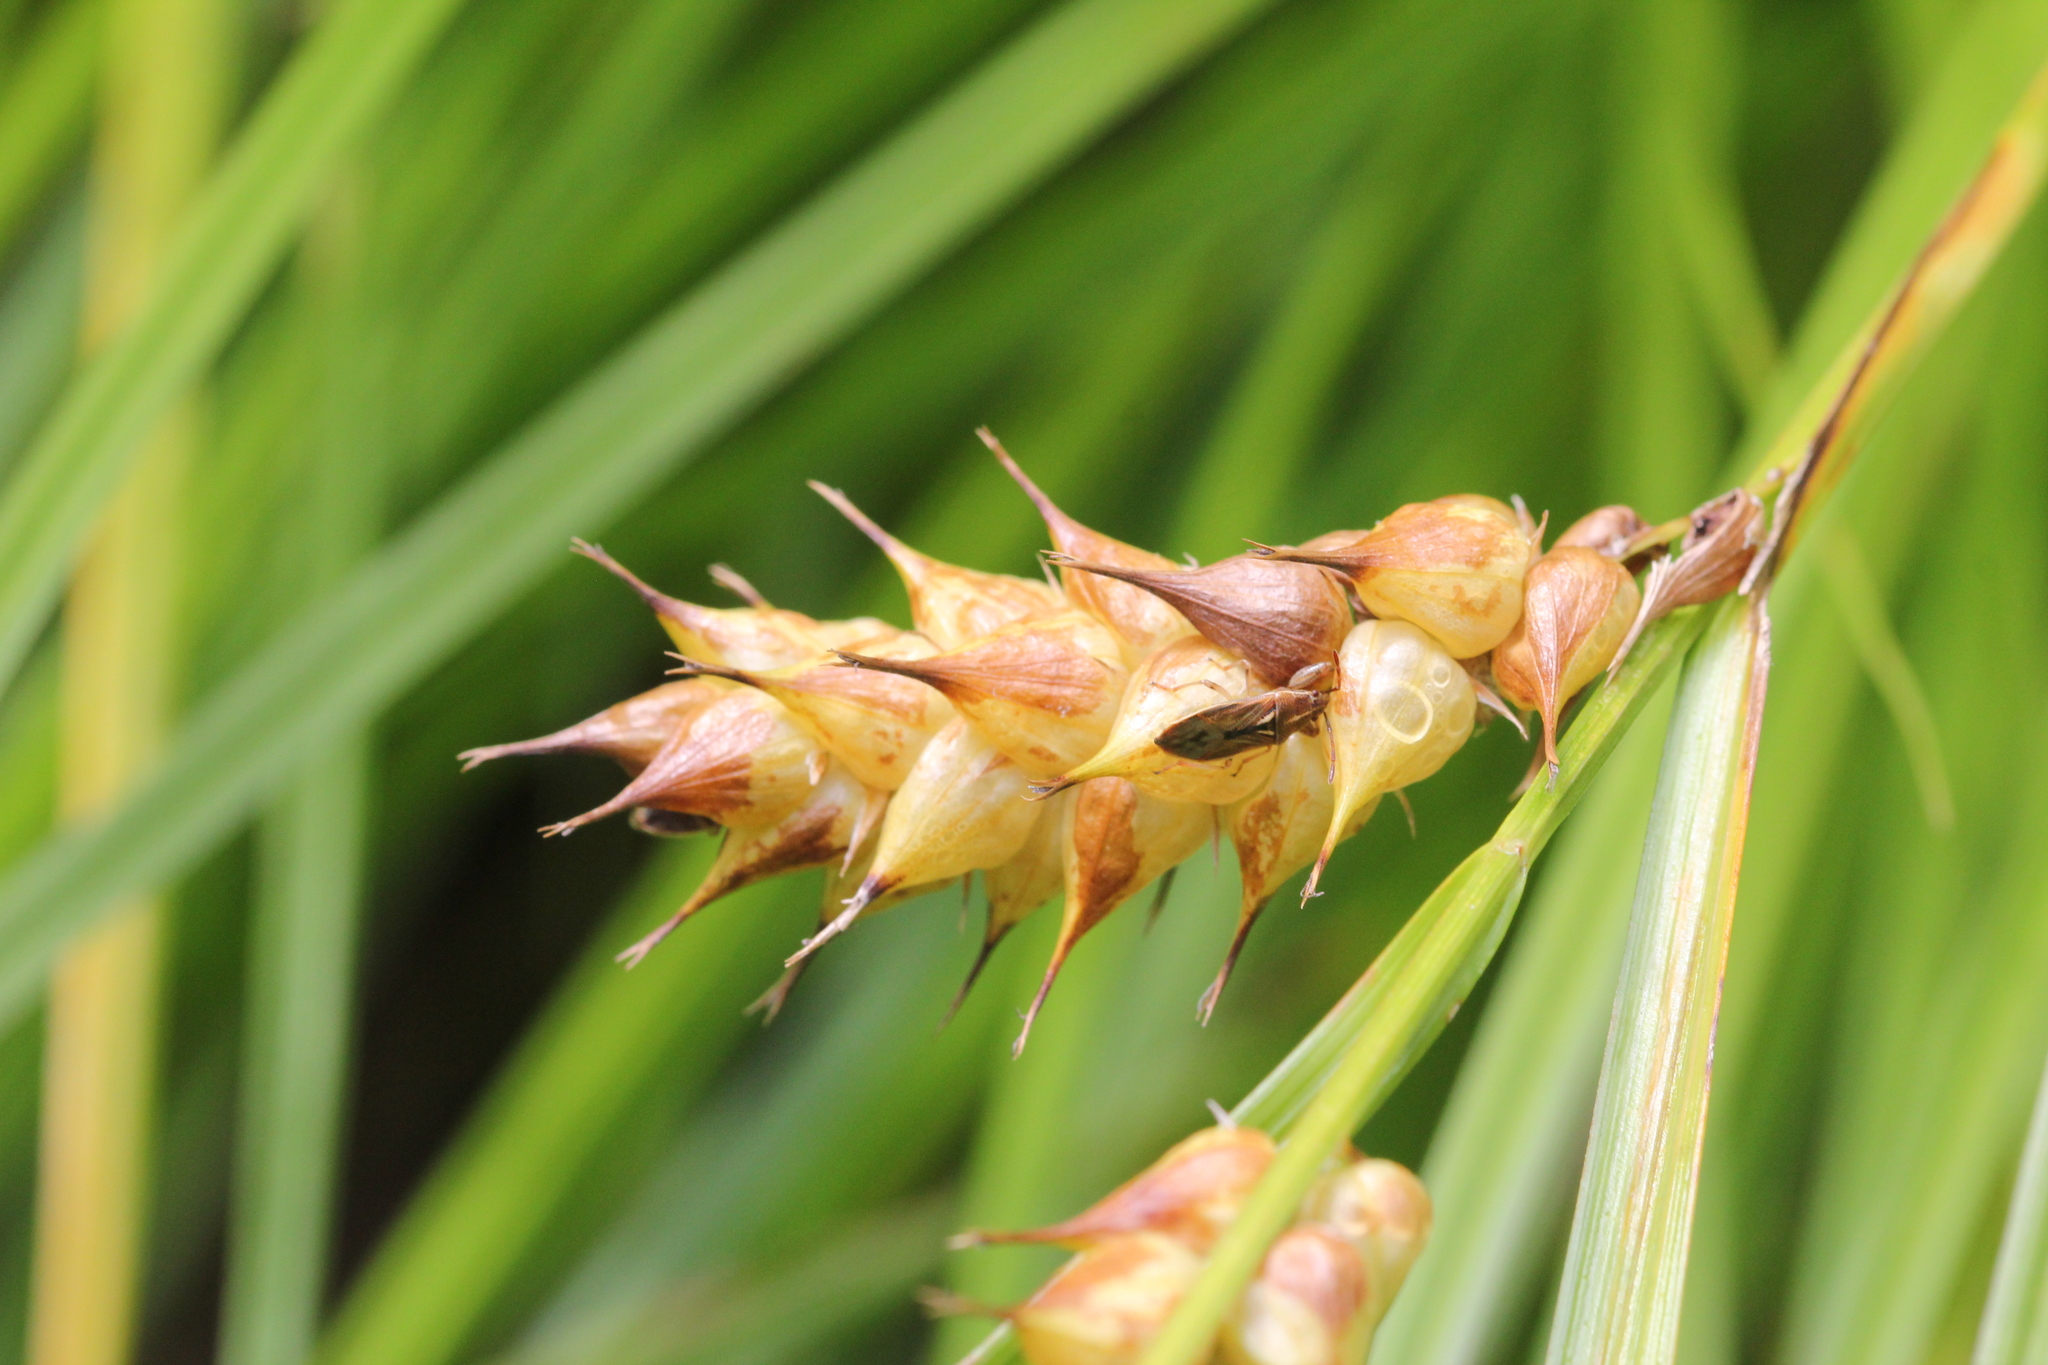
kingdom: Plantae
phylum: Tracheophyta
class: Liliopsida
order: Poales
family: Cyperaceae
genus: Carex
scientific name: Carex tuckermanii
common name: Tuckerman's sedge
